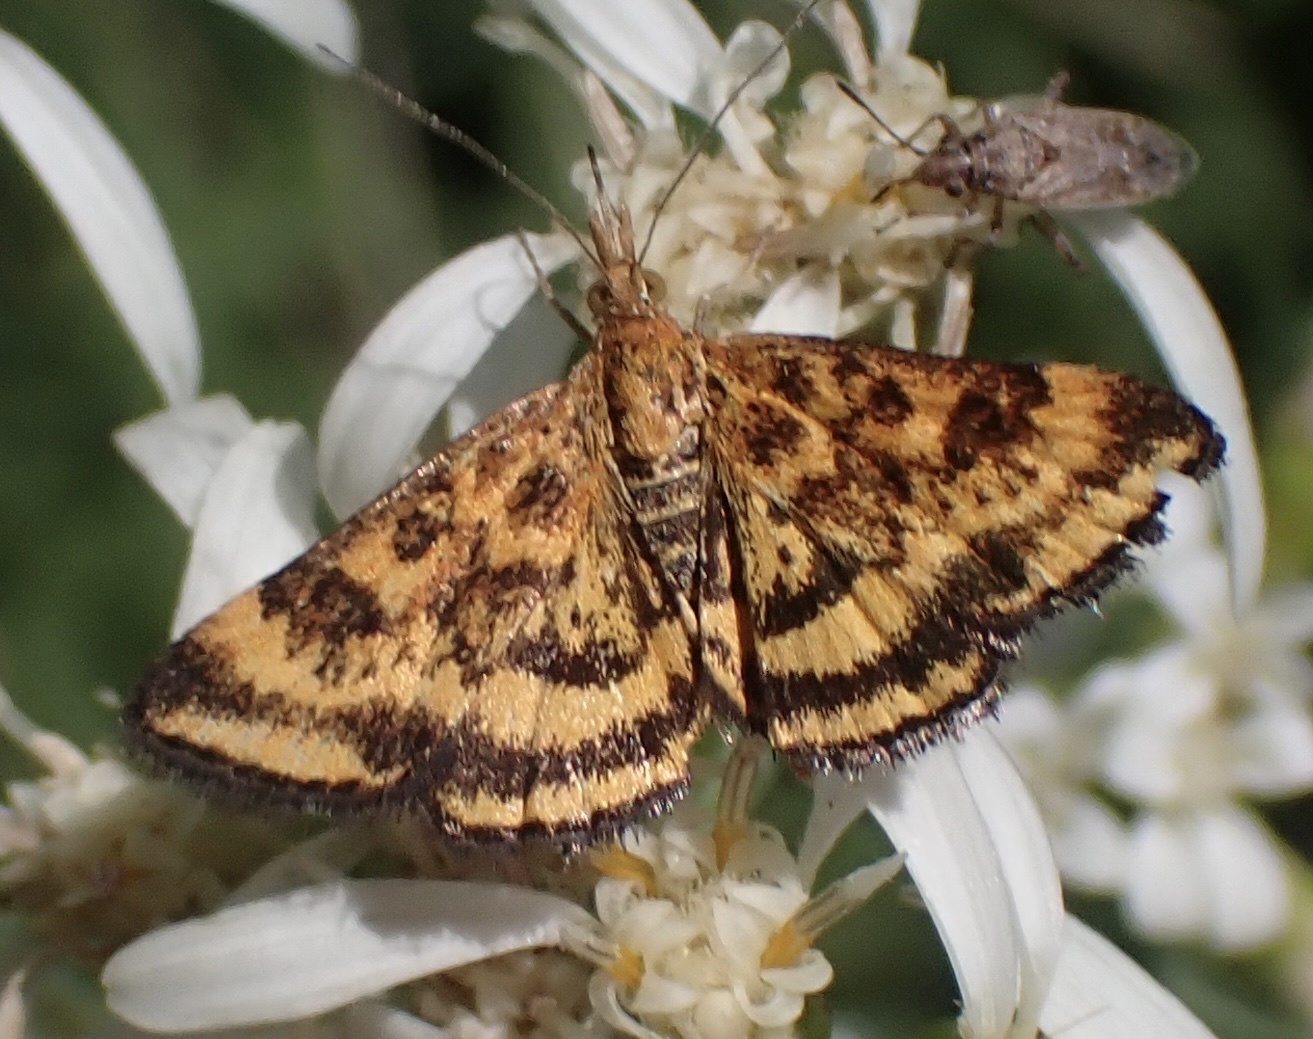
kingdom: Animalia
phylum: Arthropoda
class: Insecta
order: Lepidoptera
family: Crambidae
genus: Pyrausta
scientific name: Pyrausta subsequalis
